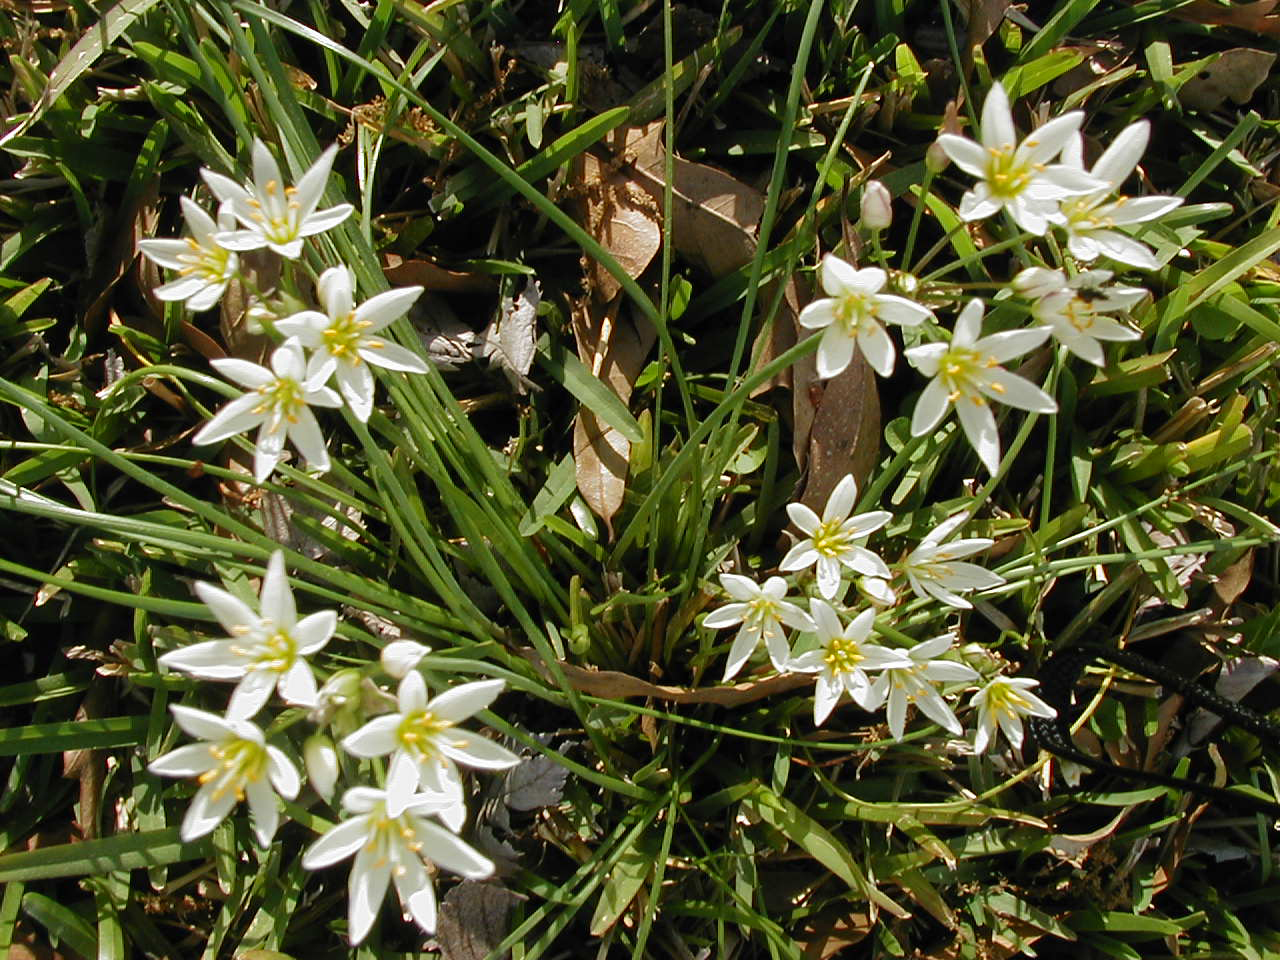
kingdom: Plantae
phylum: Tracheophyta
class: Liliopsida
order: Asparagales
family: Amaryllidaceae
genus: Nothoscordum
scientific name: Nothoscordum bivalve
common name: Crow-poison
